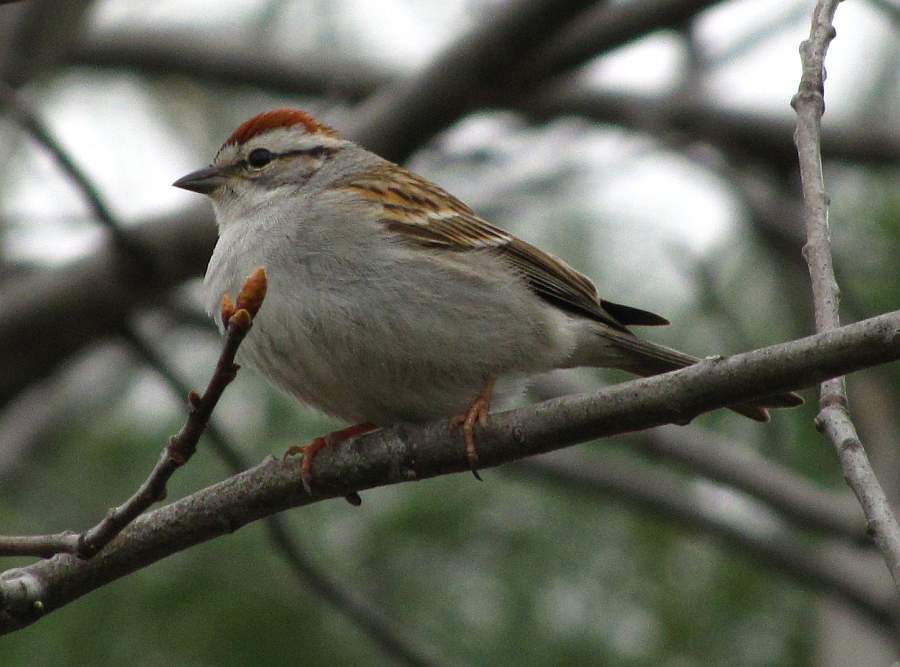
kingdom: Animalia
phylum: Chordata
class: Aves
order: Passeriformes
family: Passerellidae
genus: Spizella
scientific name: Spizella passerina
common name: Chipping sparrow
